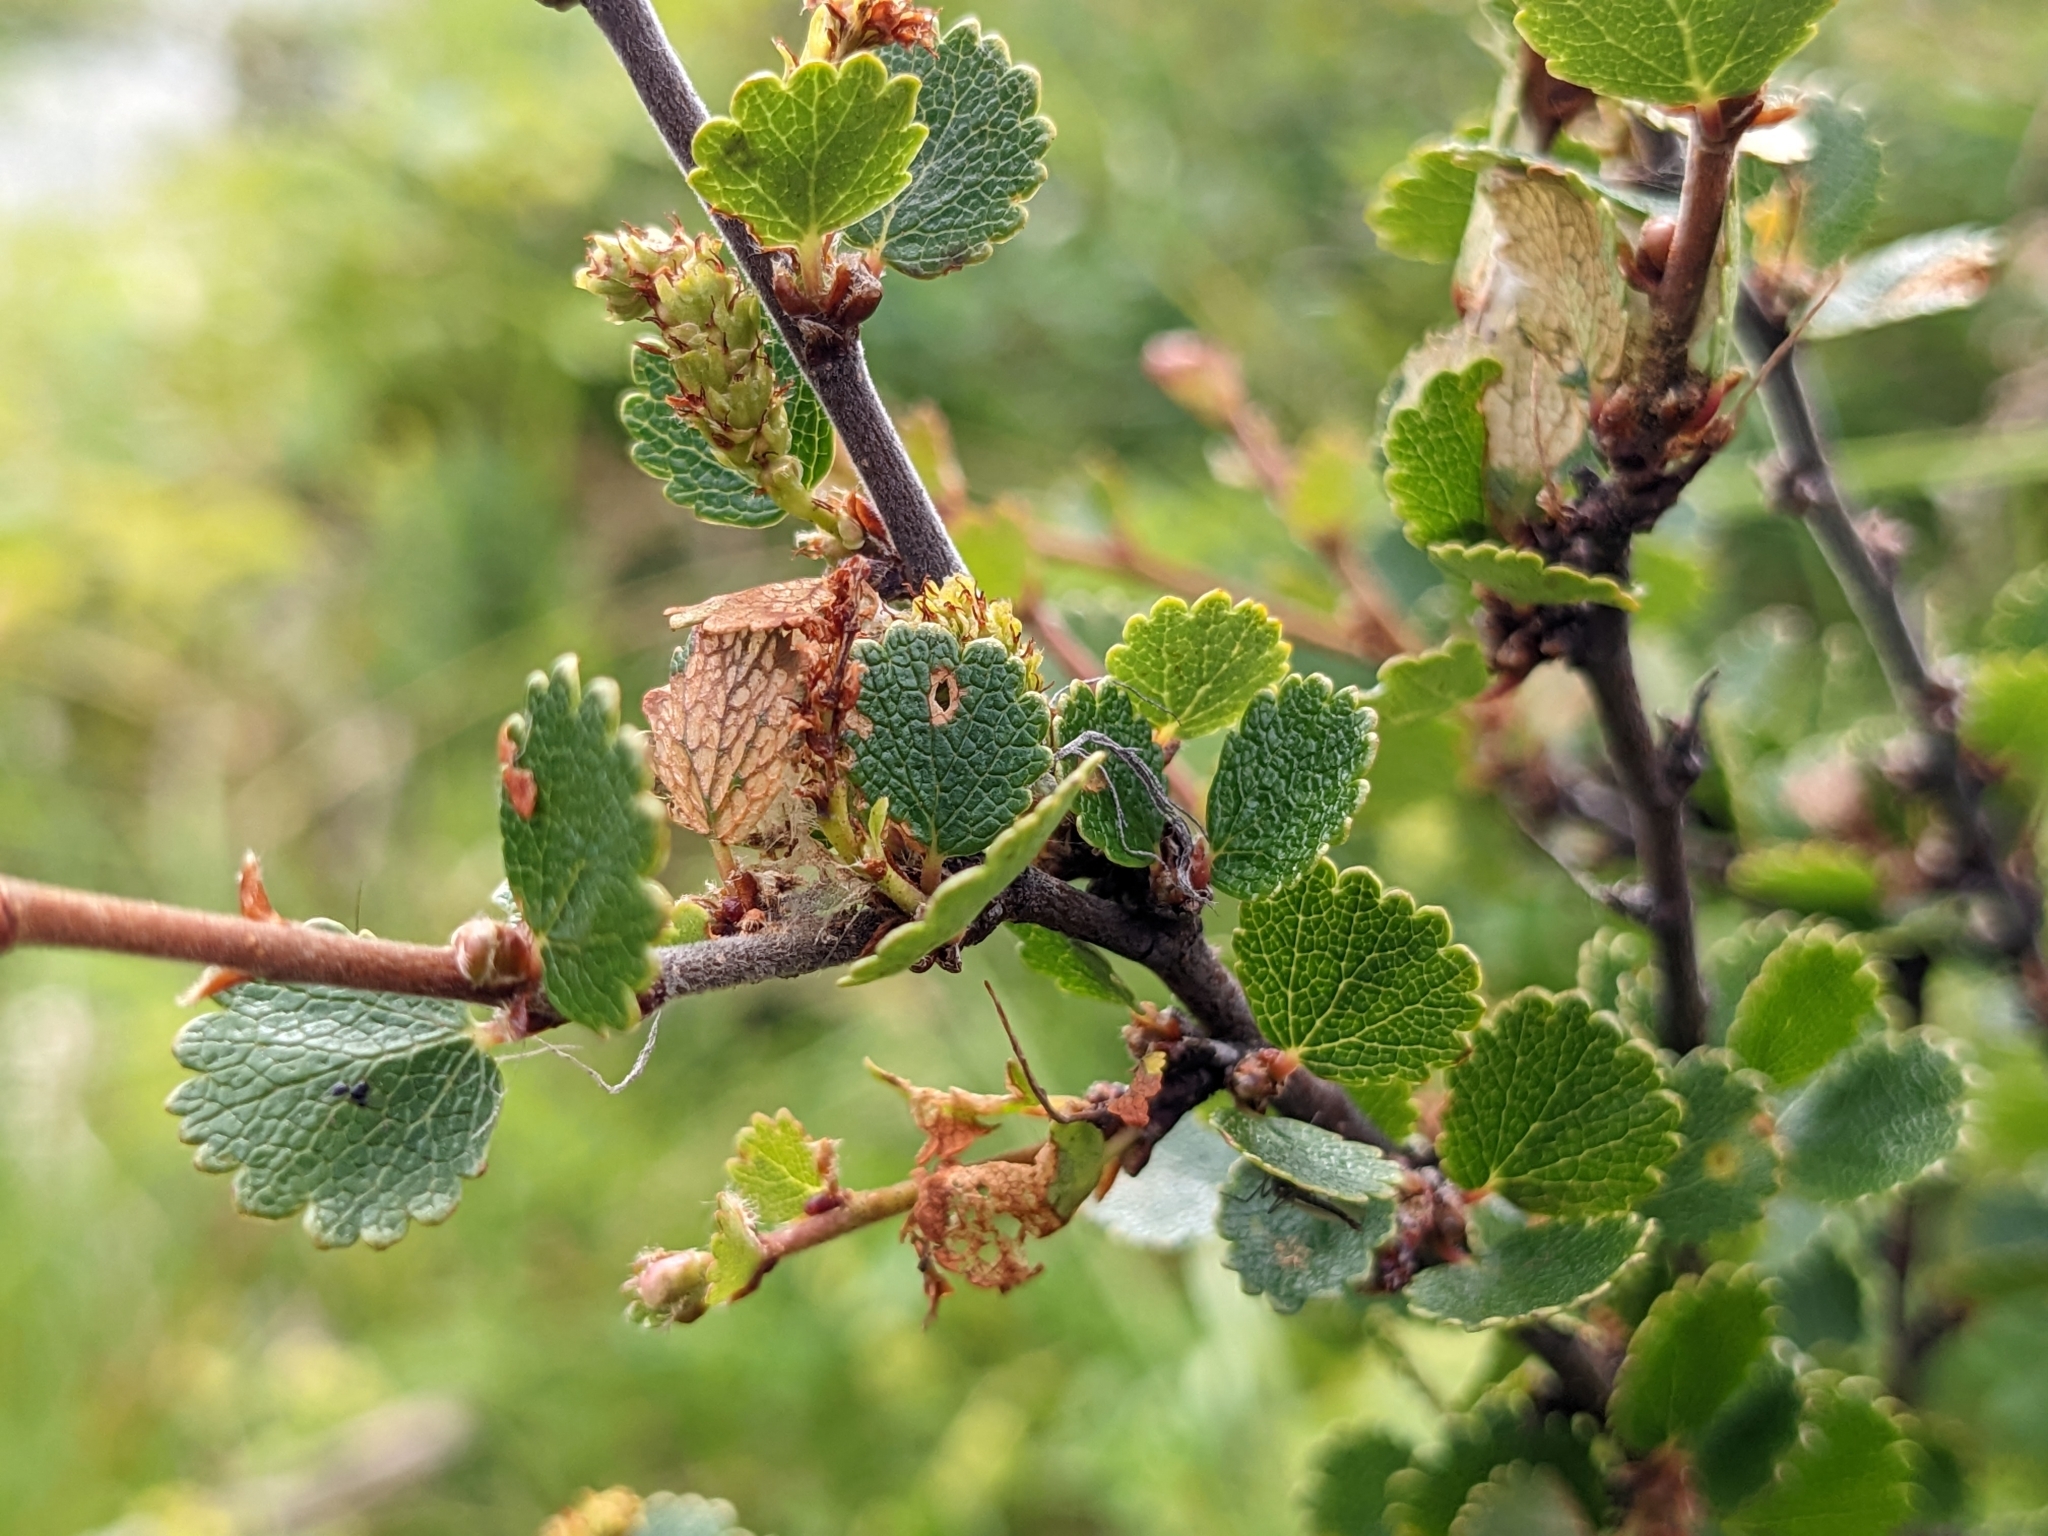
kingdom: Plantae
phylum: Tracheophyta
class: Magnoliopsida
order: Fagales
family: Betulaceae
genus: Betula
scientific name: Betula nana
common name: Arctic dwarf birch
